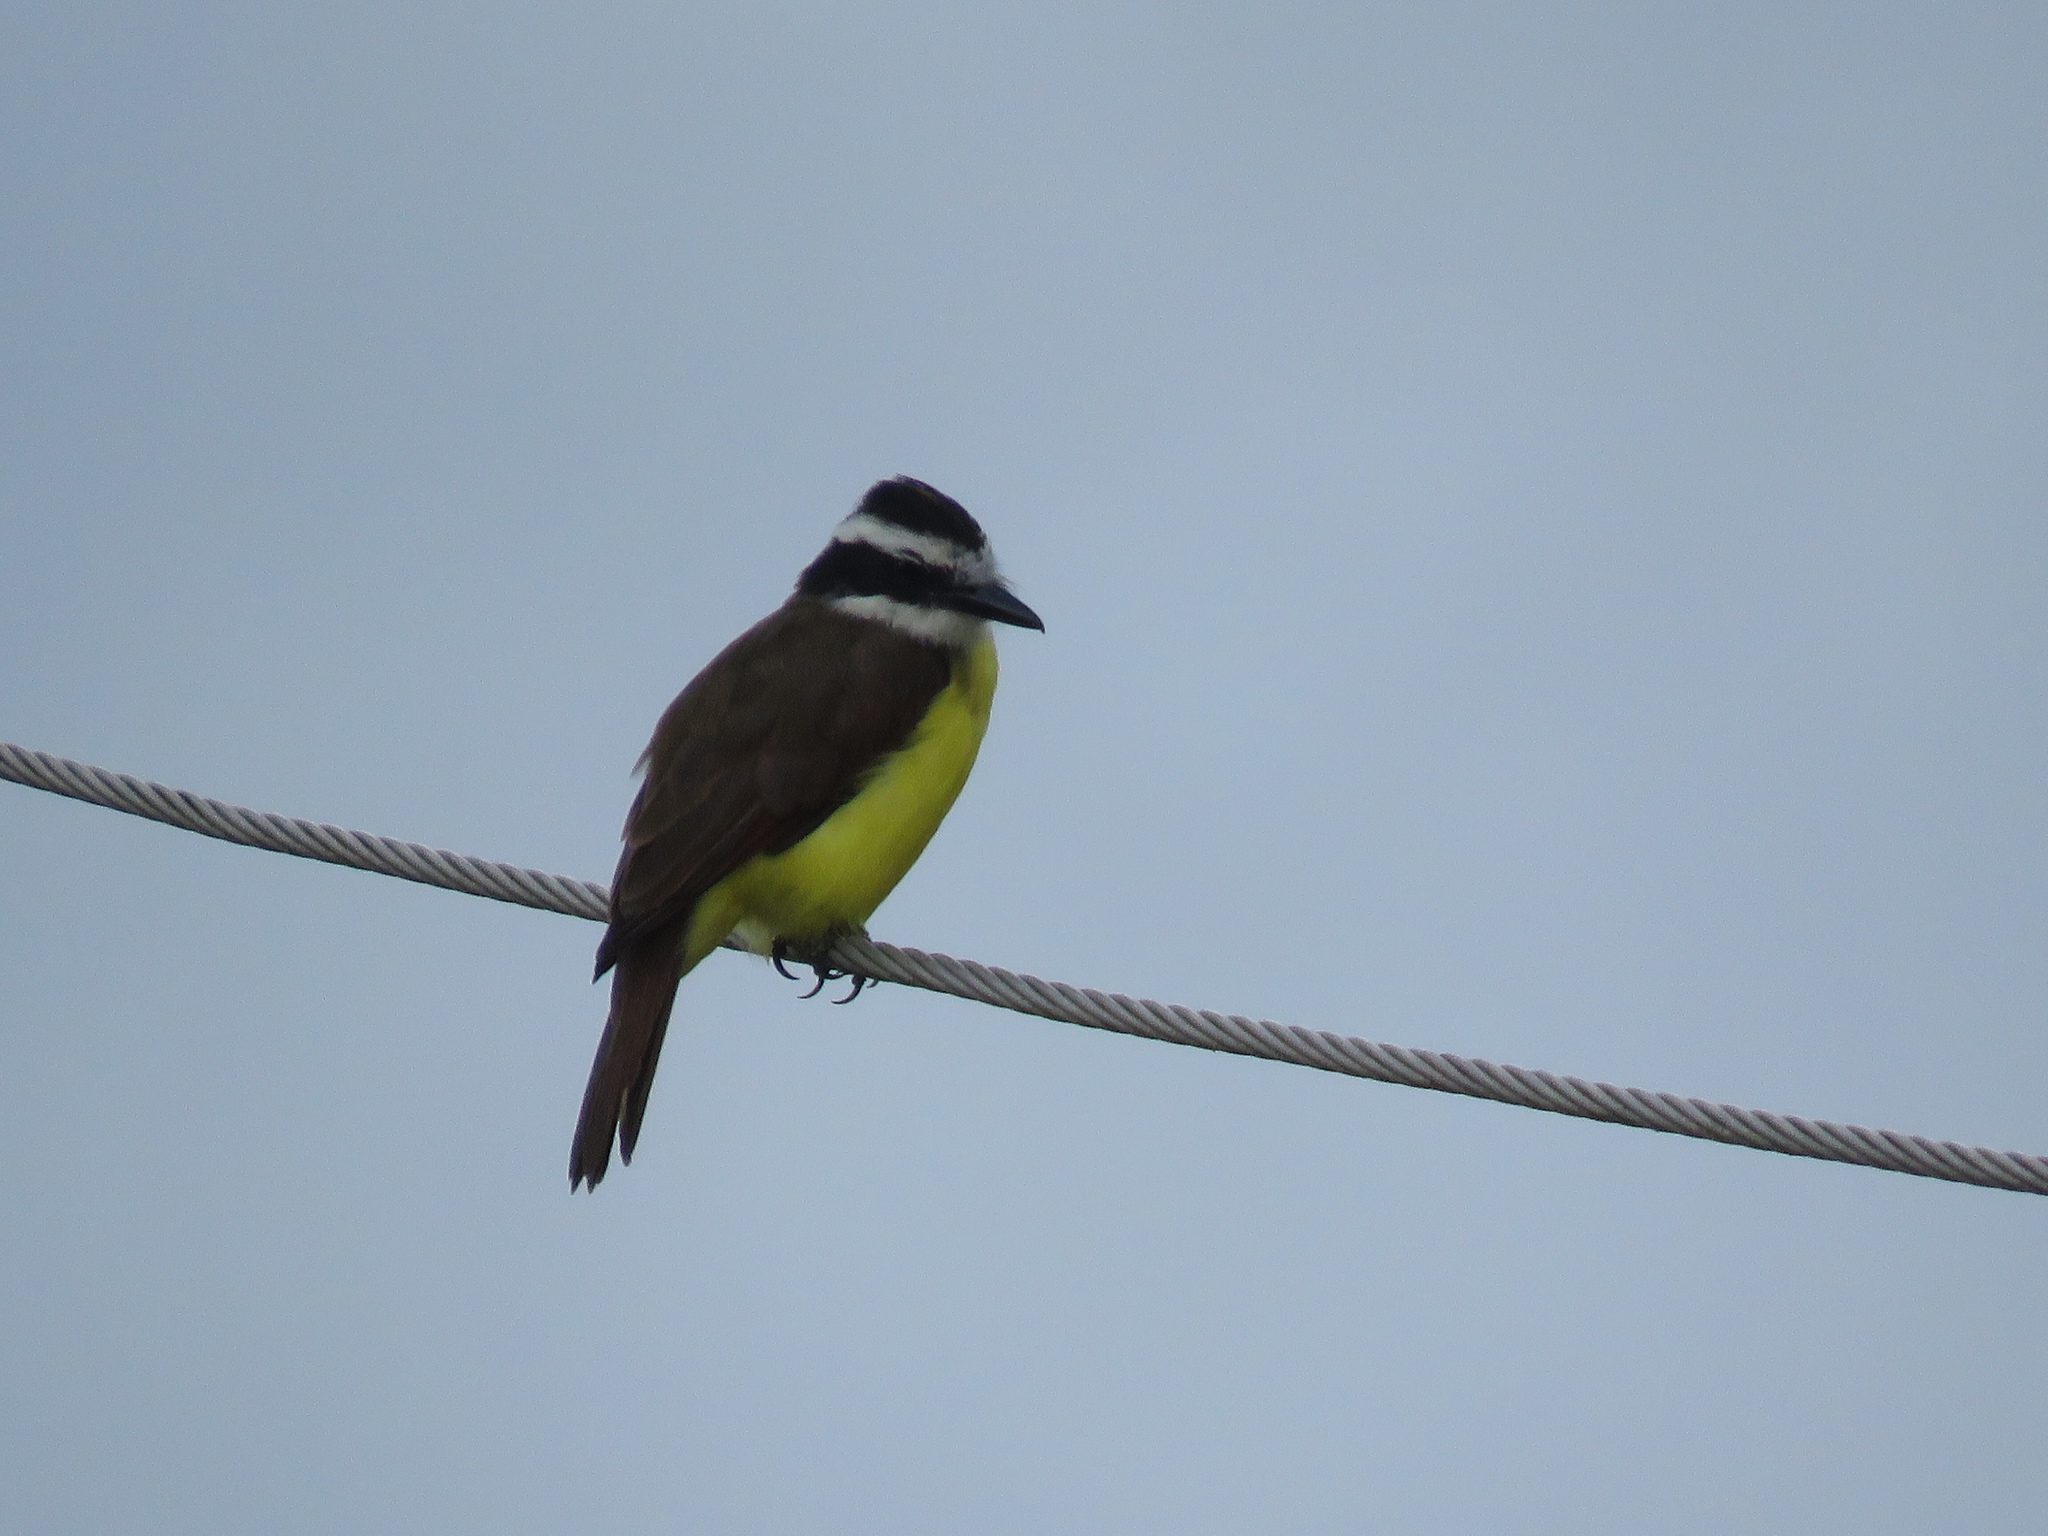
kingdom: Animalia
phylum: Chordata
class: Aves
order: Passeriformes
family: Tyrannidae
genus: Pitangus
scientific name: Pitangus sulphuratus
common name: Great kiskadee
